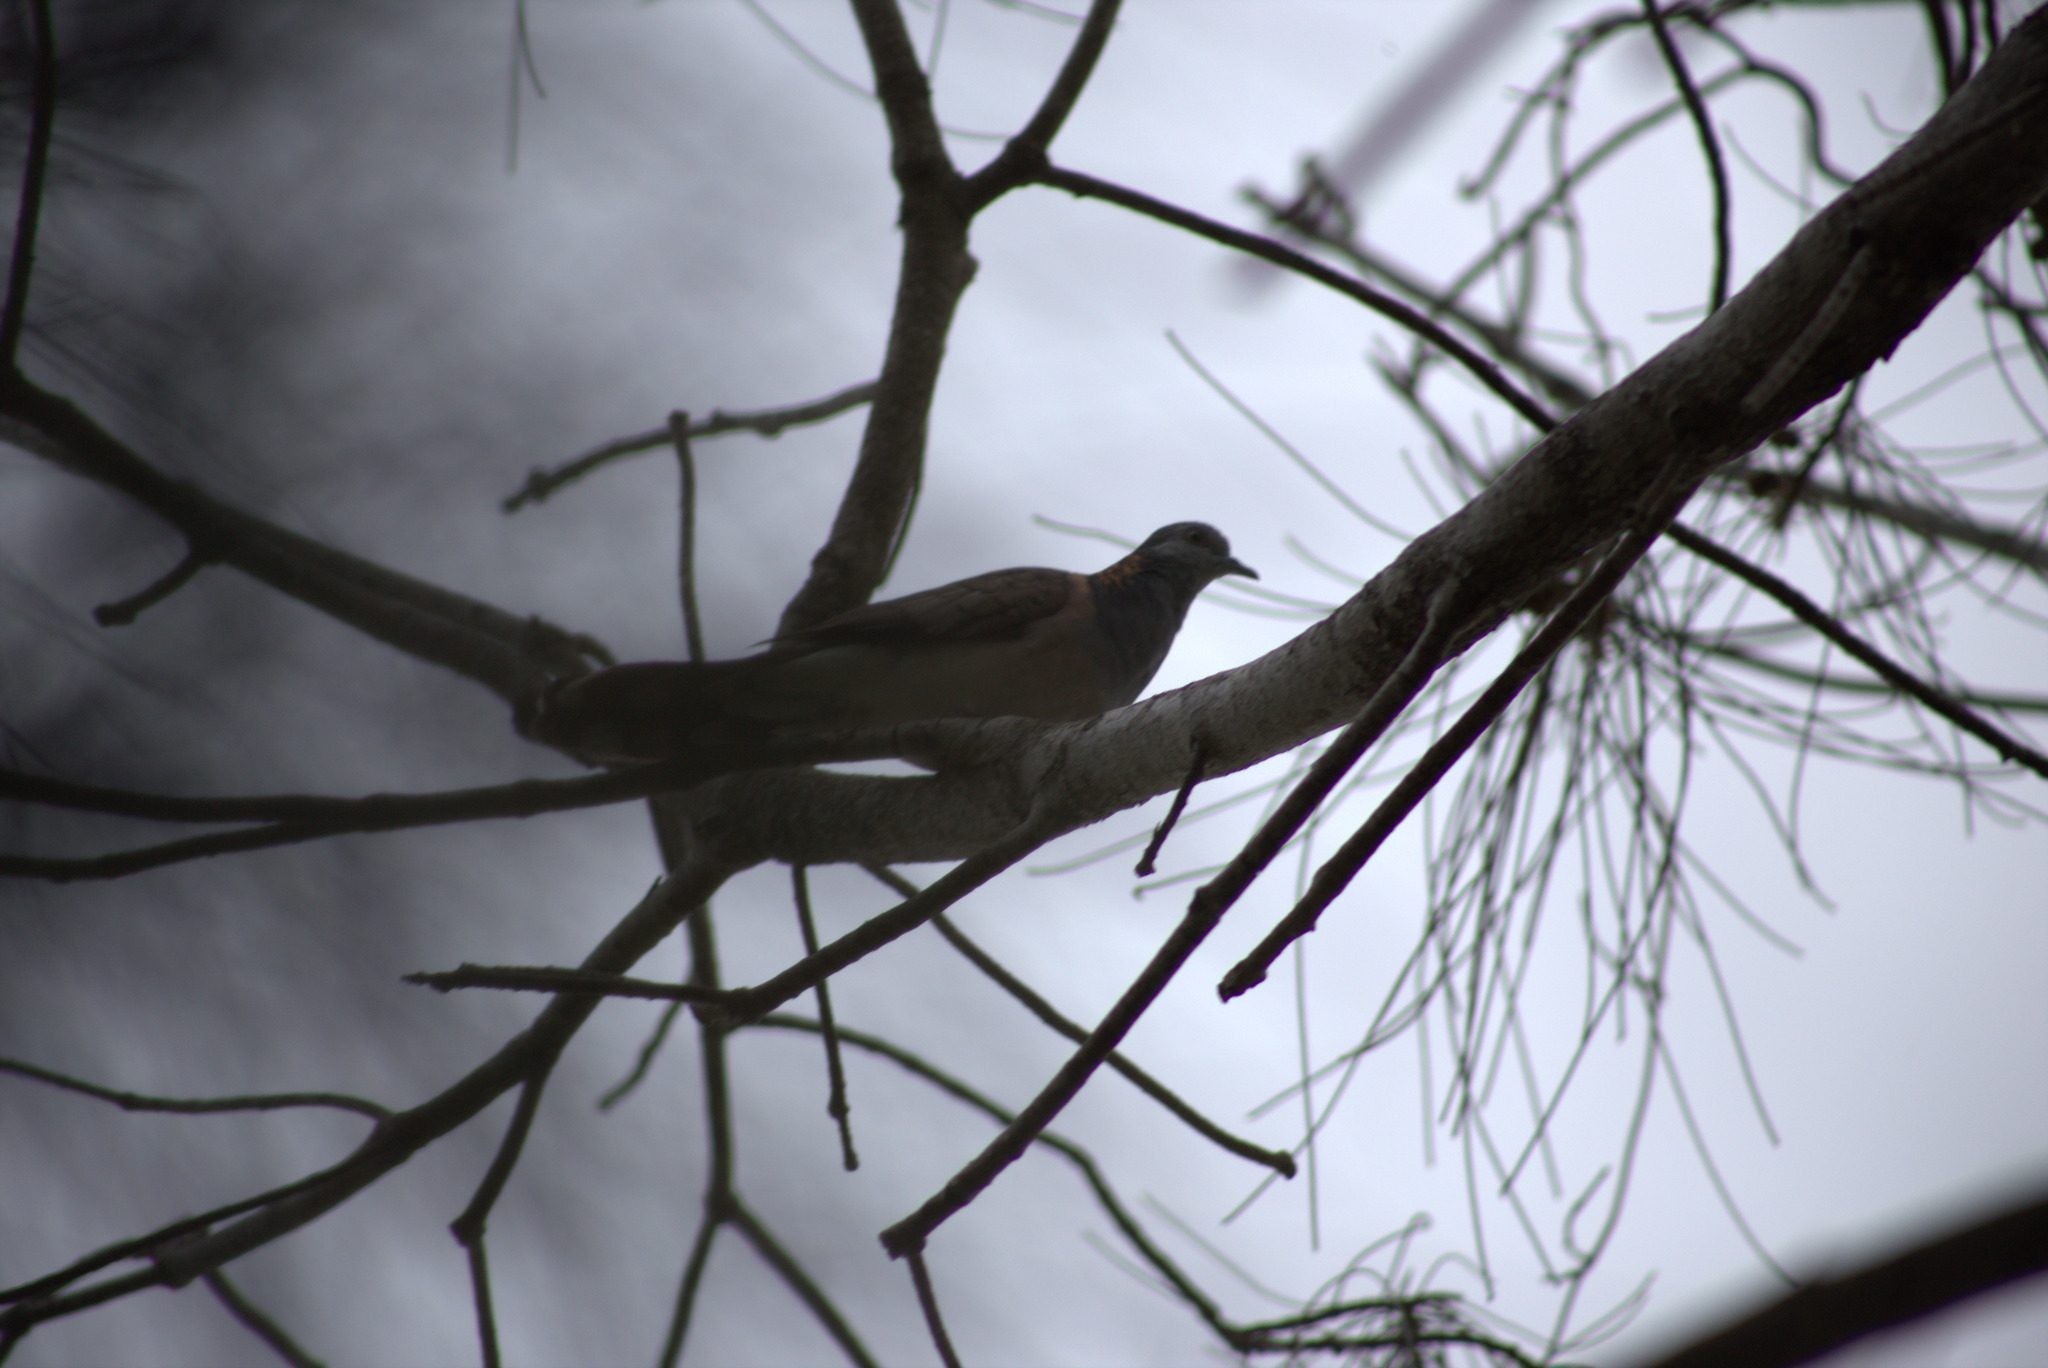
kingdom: Animalia
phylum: Chordata
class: Aves
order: Columbiformes
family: Columbidae
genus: Geopelia
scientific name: Geopelia humeralis
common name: Bar-shouldered dove
